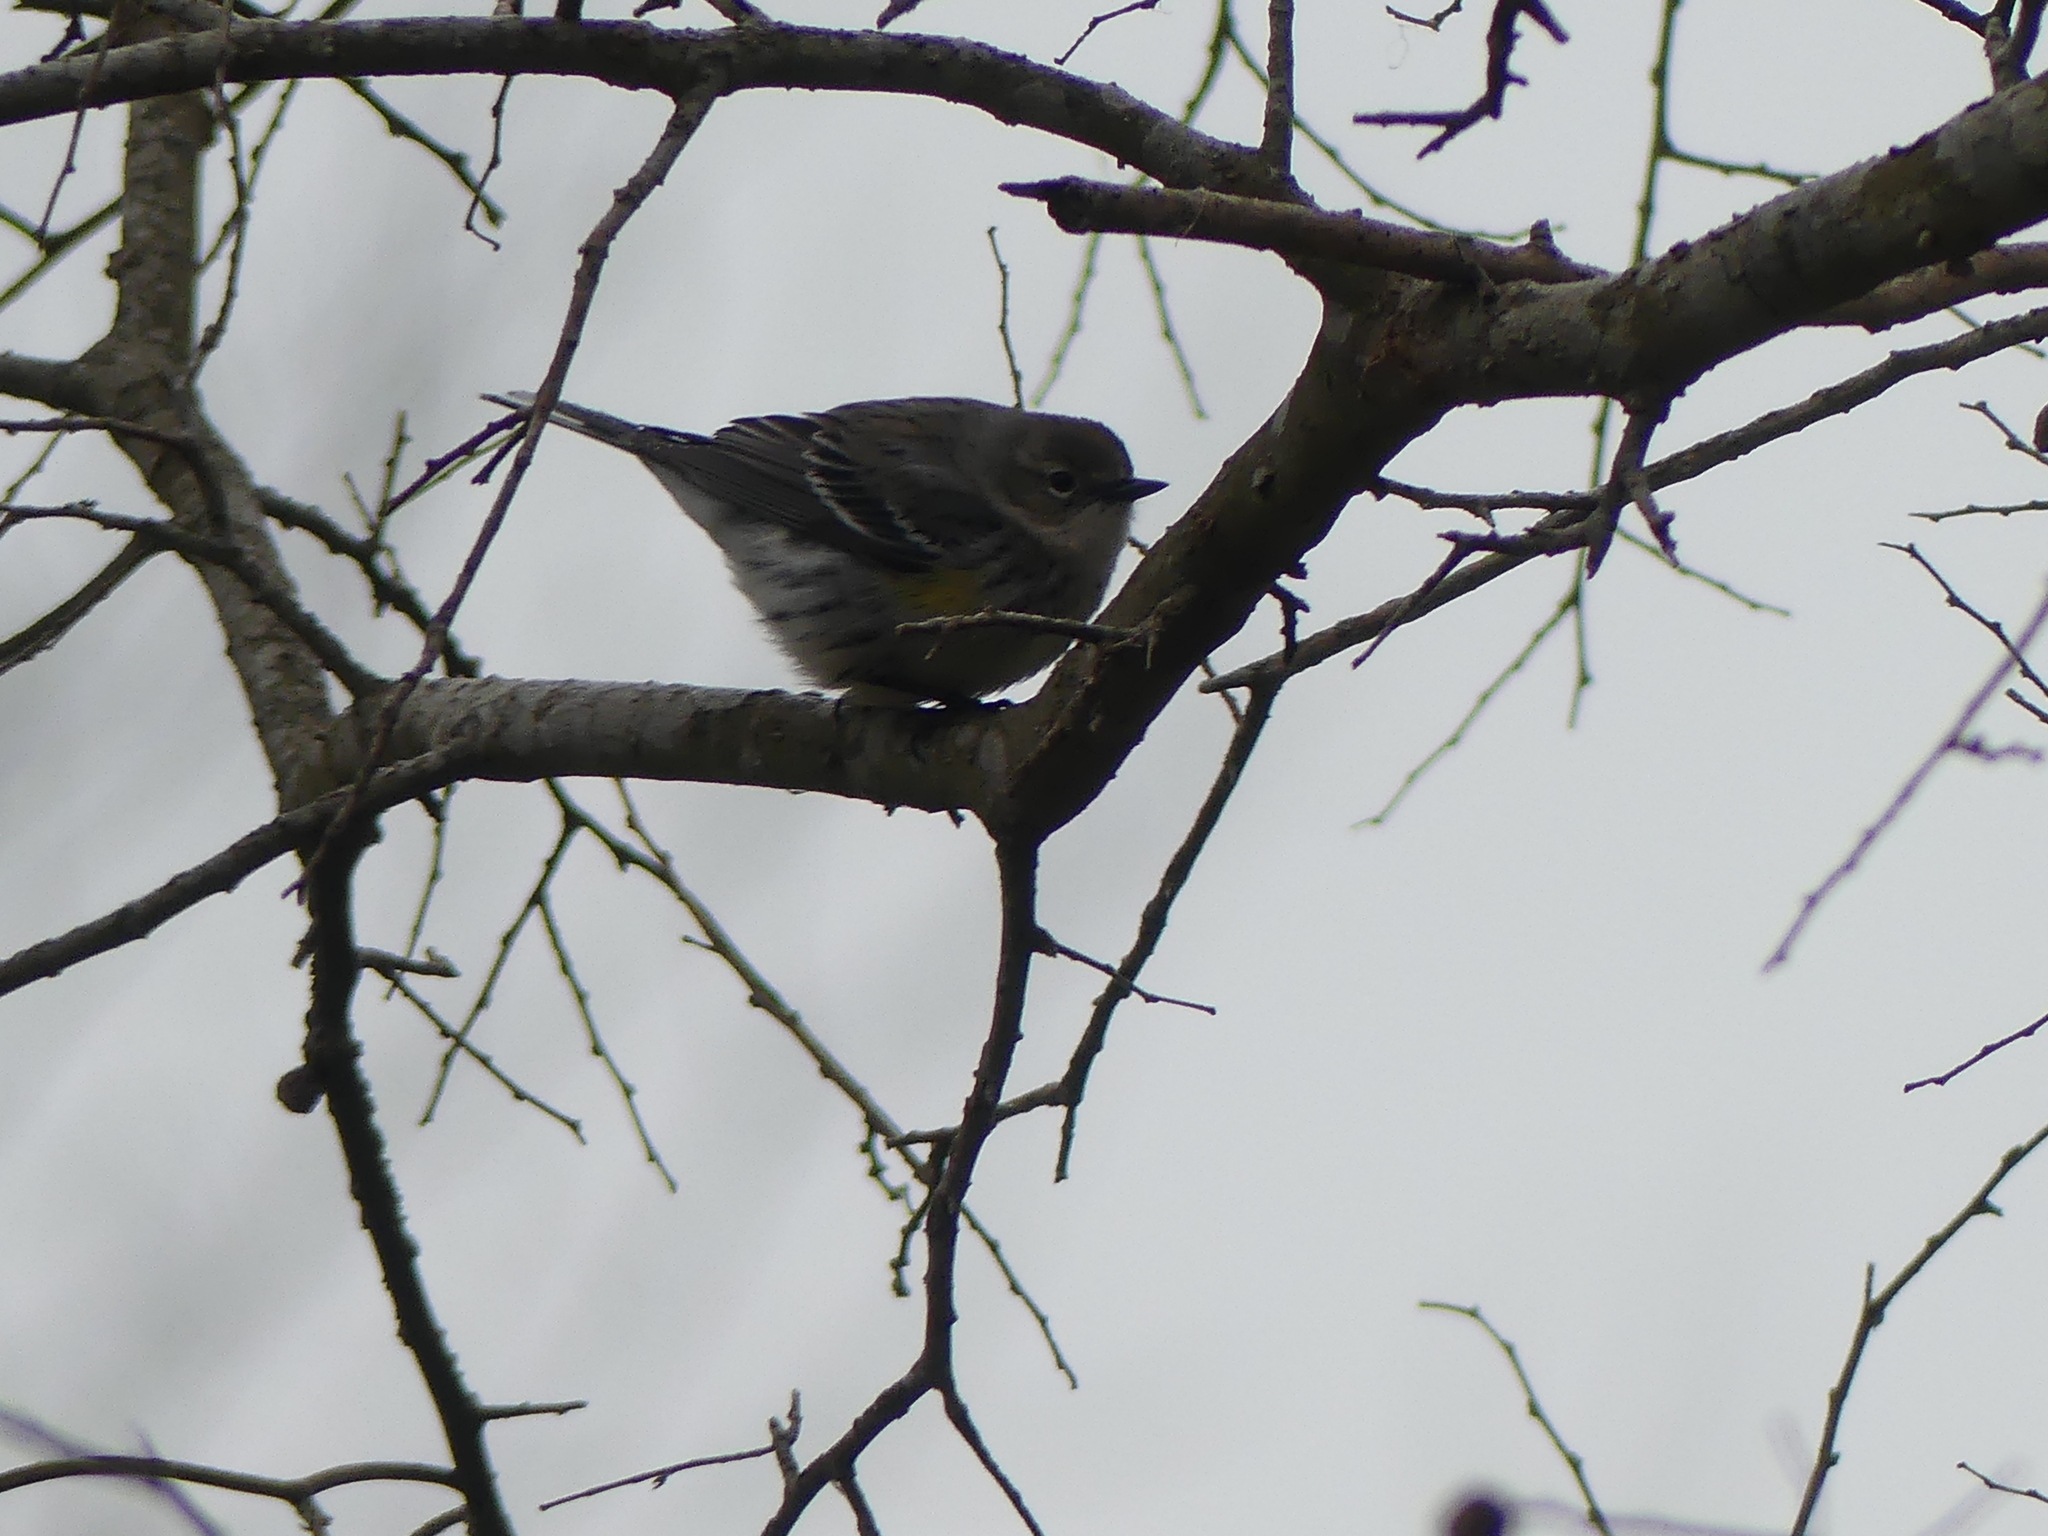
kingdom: Animalia
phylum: Chordata
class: Aves
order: Passeriformes
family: Parulidae
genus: Setophaga
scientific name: Setophaga coronata
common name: Myrtle warbler
